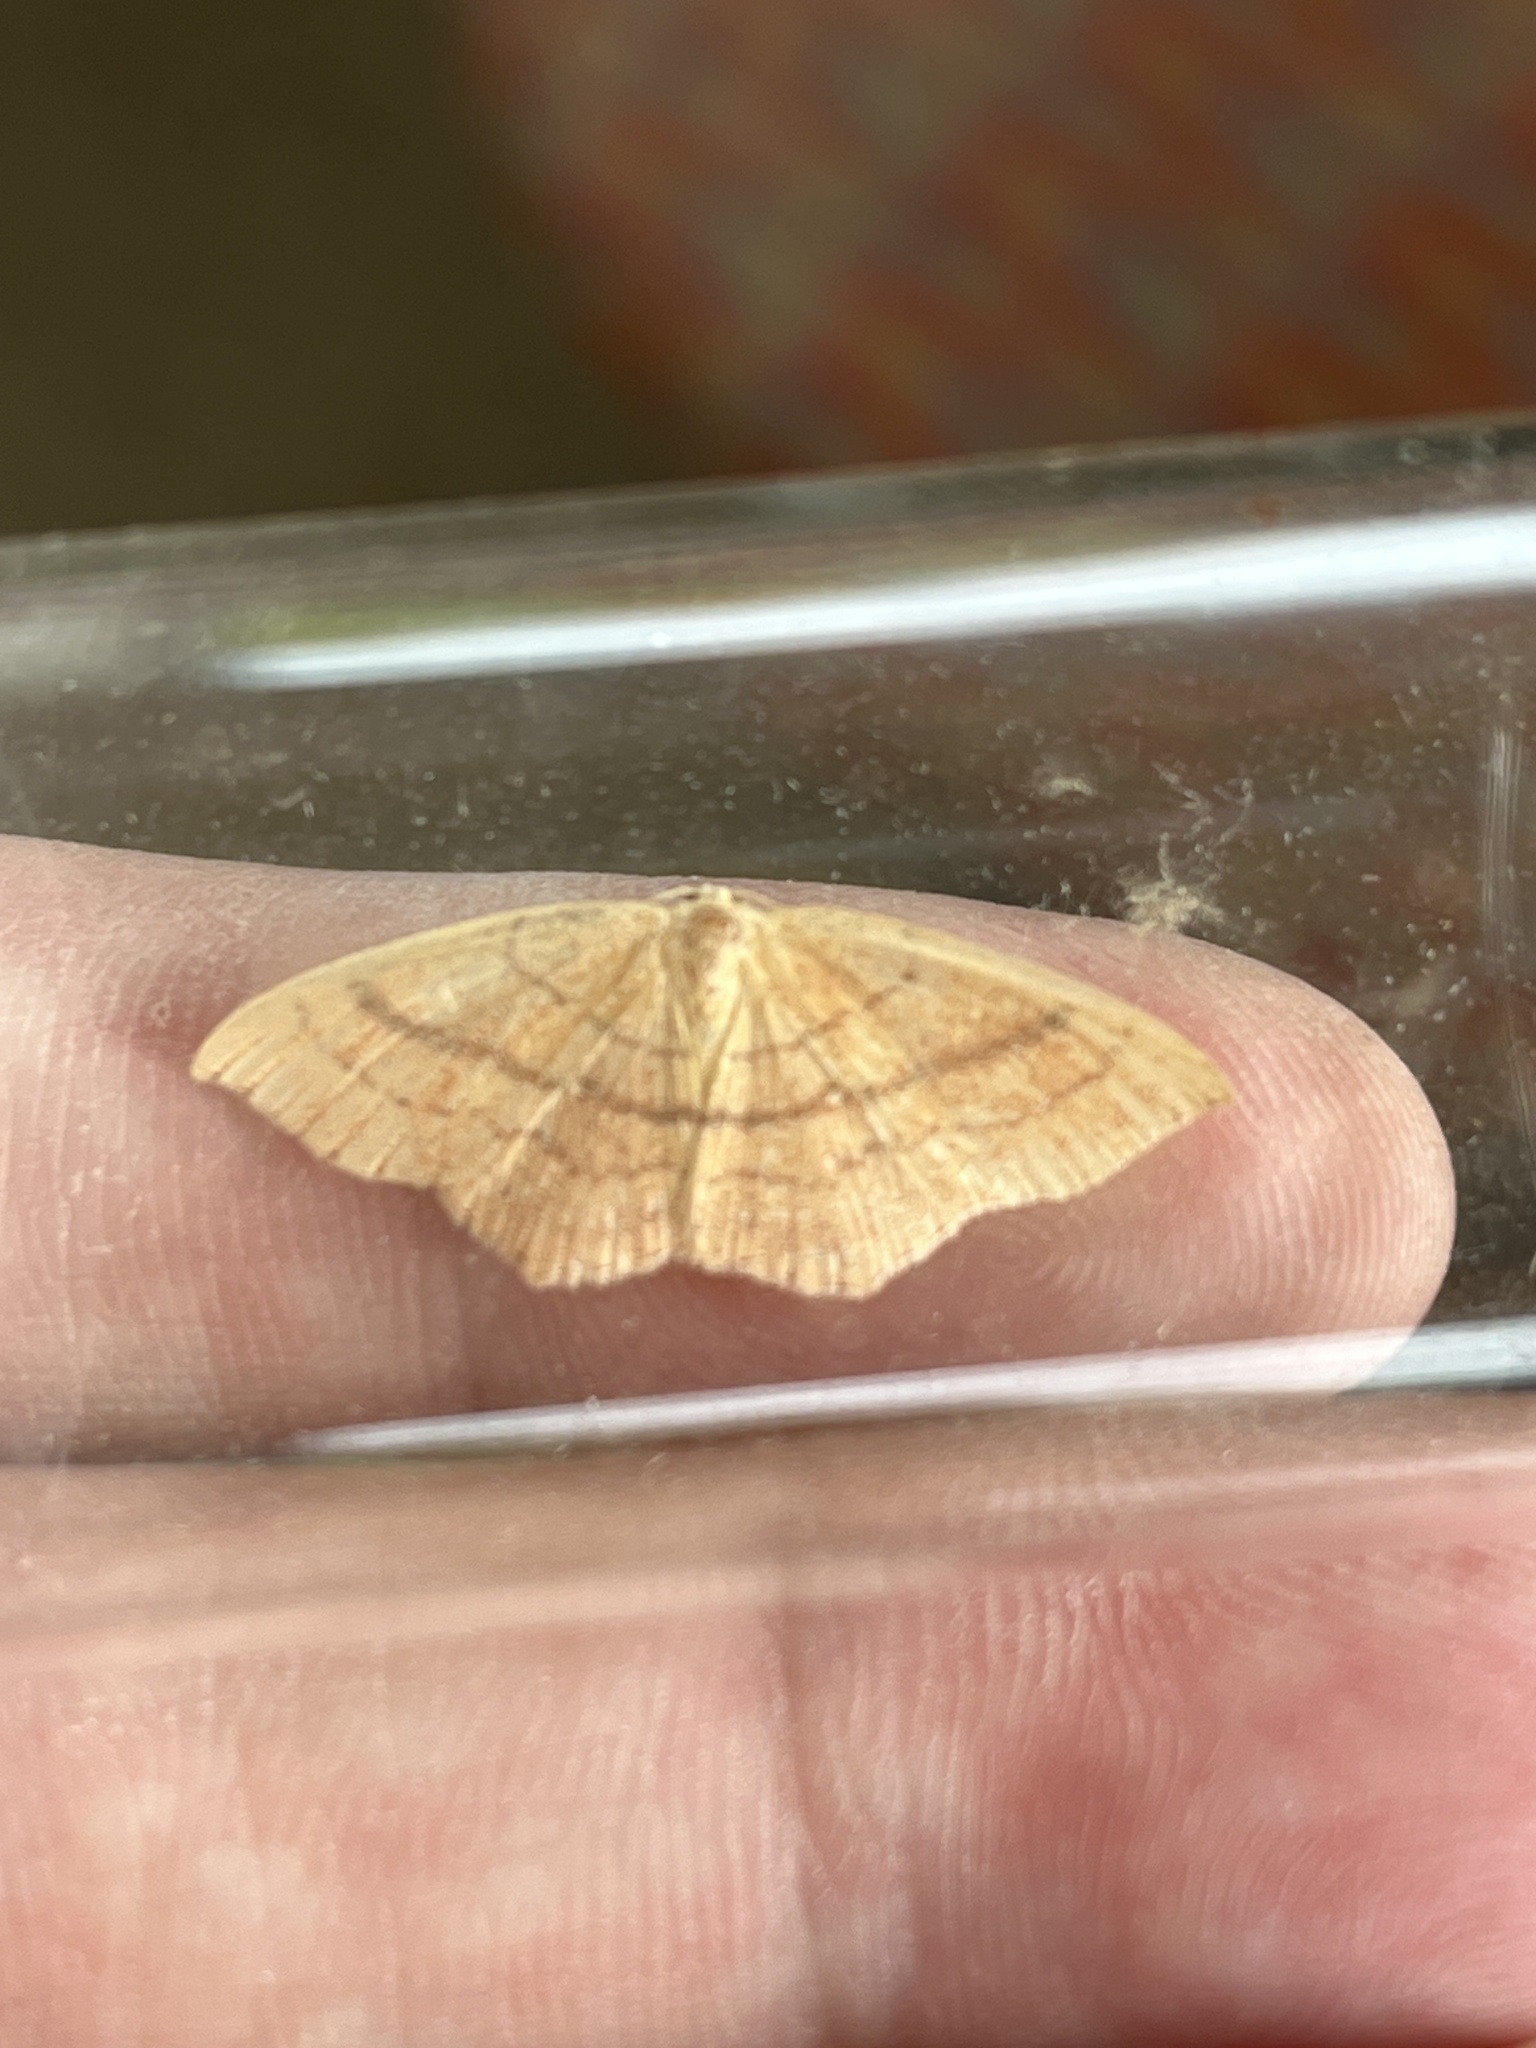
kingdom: Animalia
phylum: Arthropoda
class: Insecta
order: Lepidoptera
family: Geometridae
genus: Cyclophora
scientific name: Cyclophora linearia
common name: Clay triple-lines
